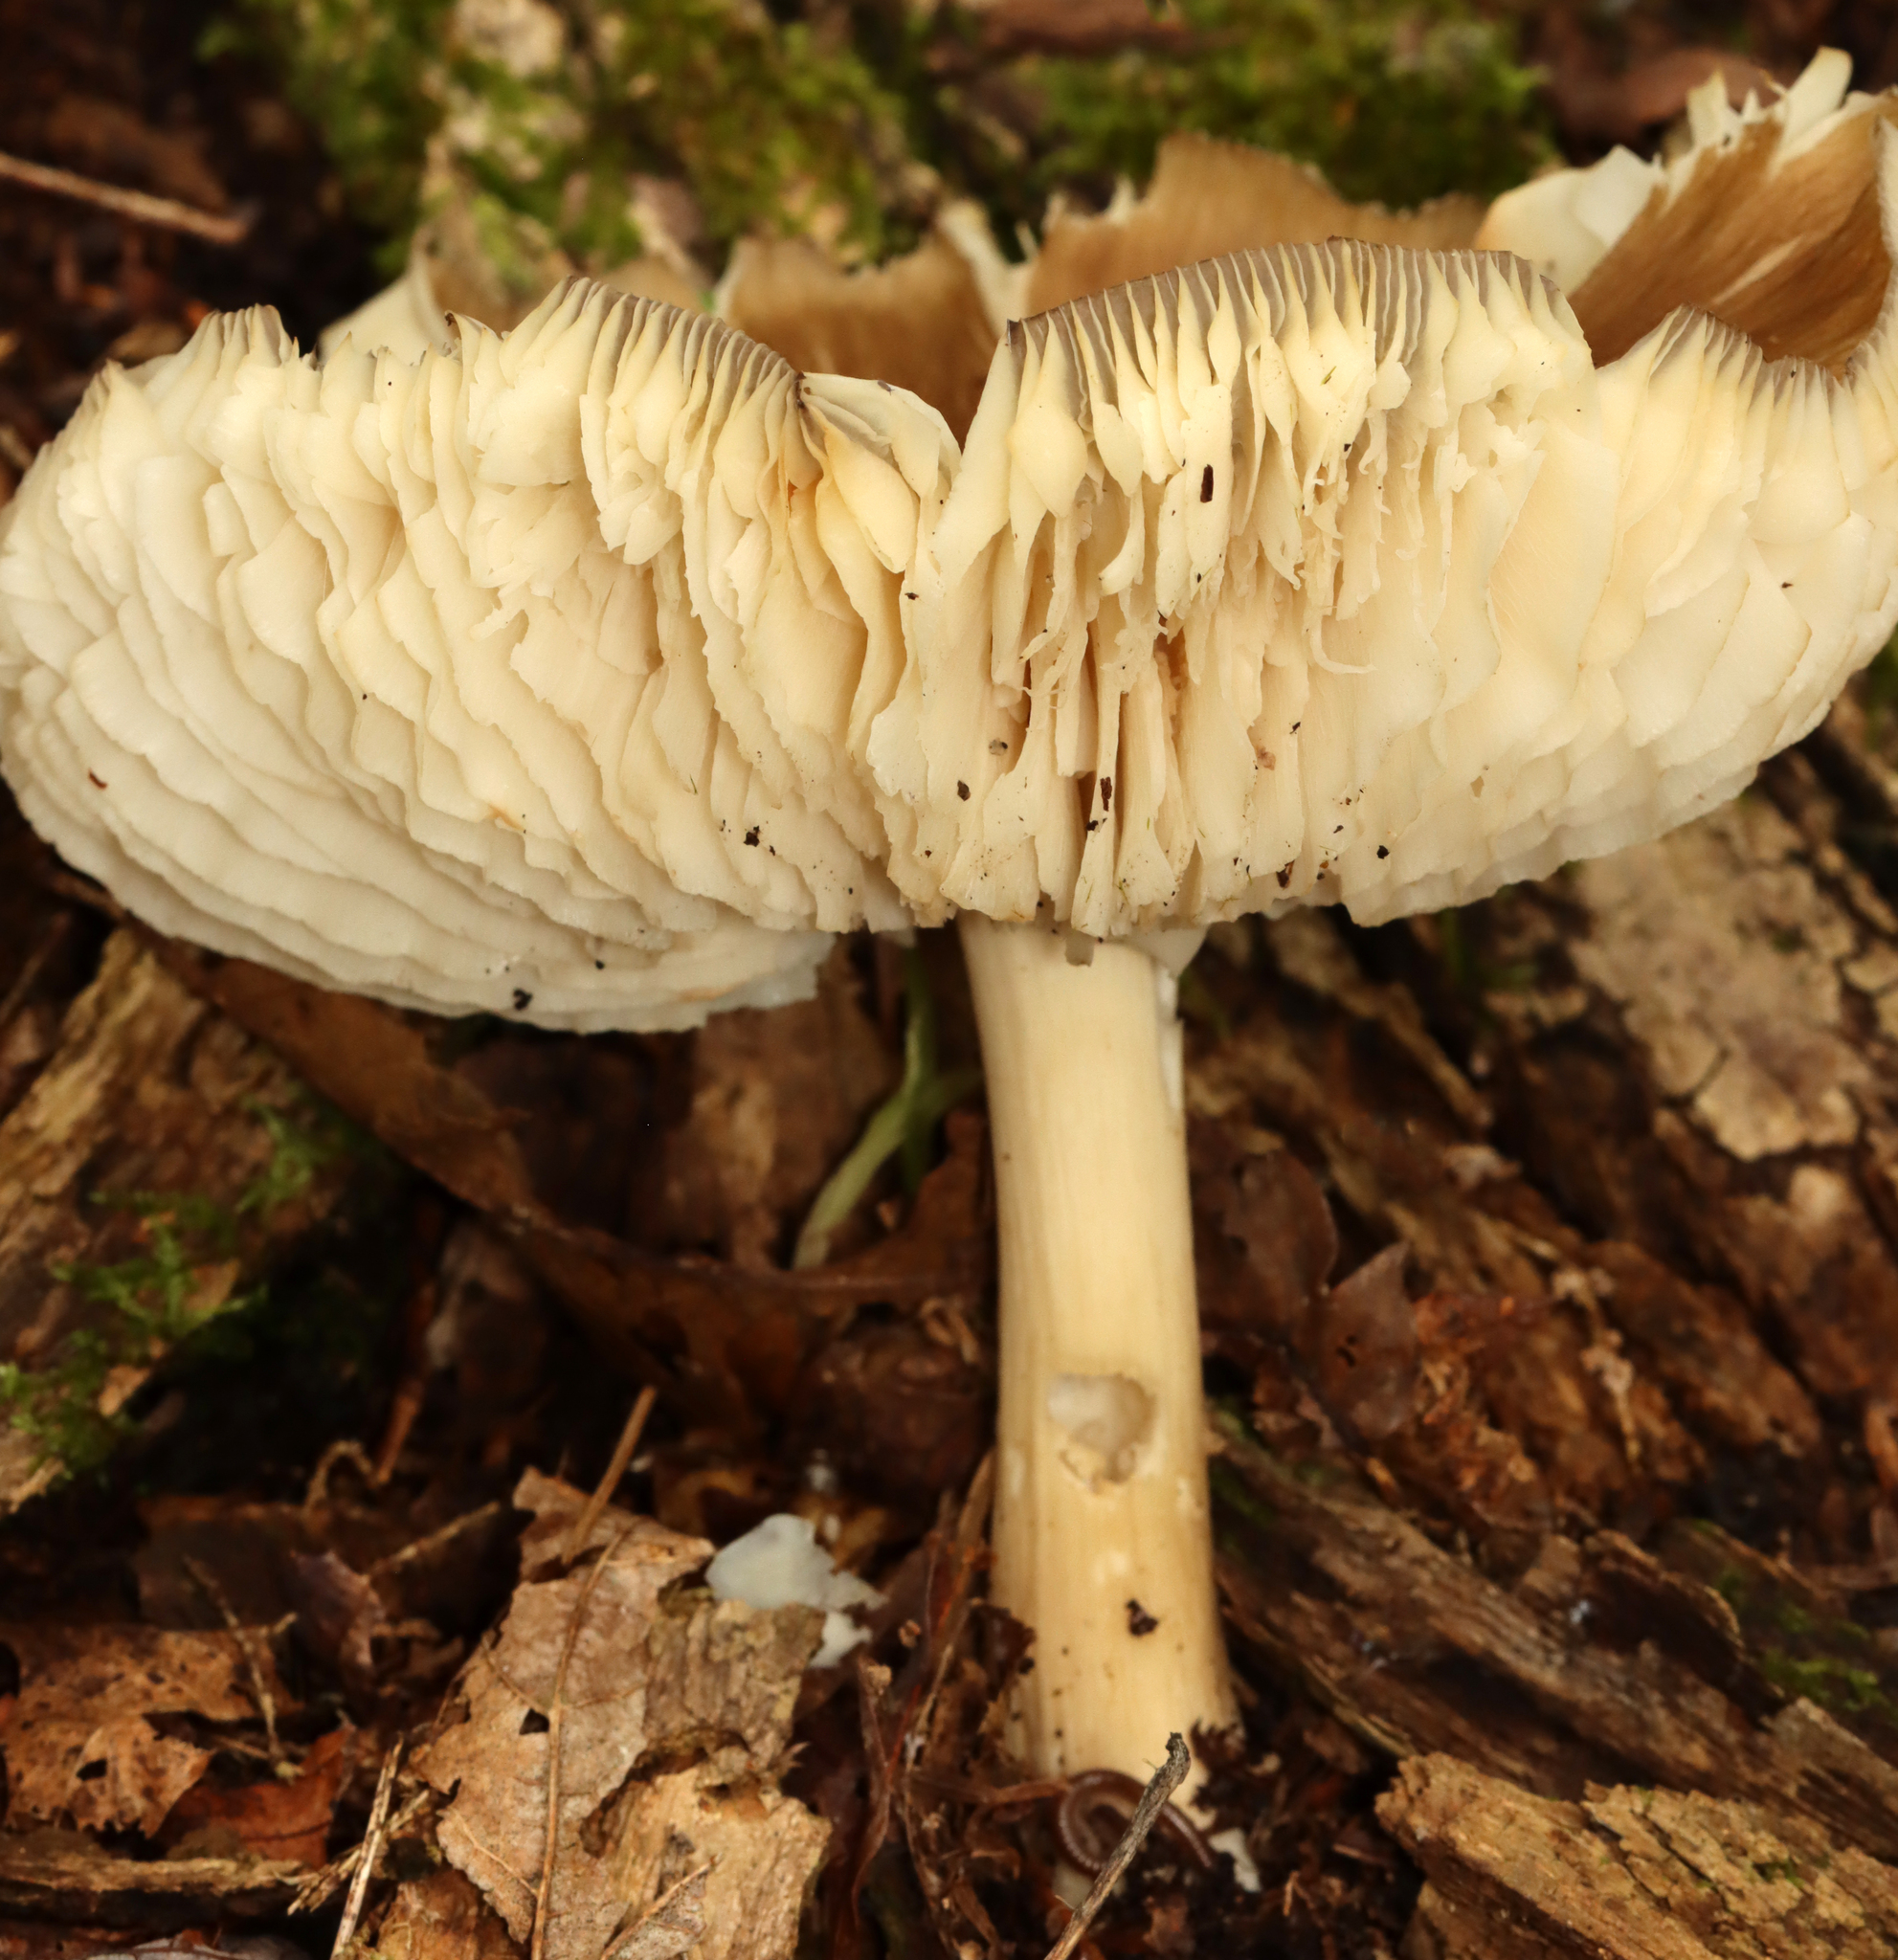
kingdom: Fungi
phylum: Basidiomycota
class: Agaricomycetes
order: Agaricales
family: Tricholomataceae
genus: Megacollybia
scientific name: Megacollybia rodmanii
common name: Eastern american platterful mushroom
